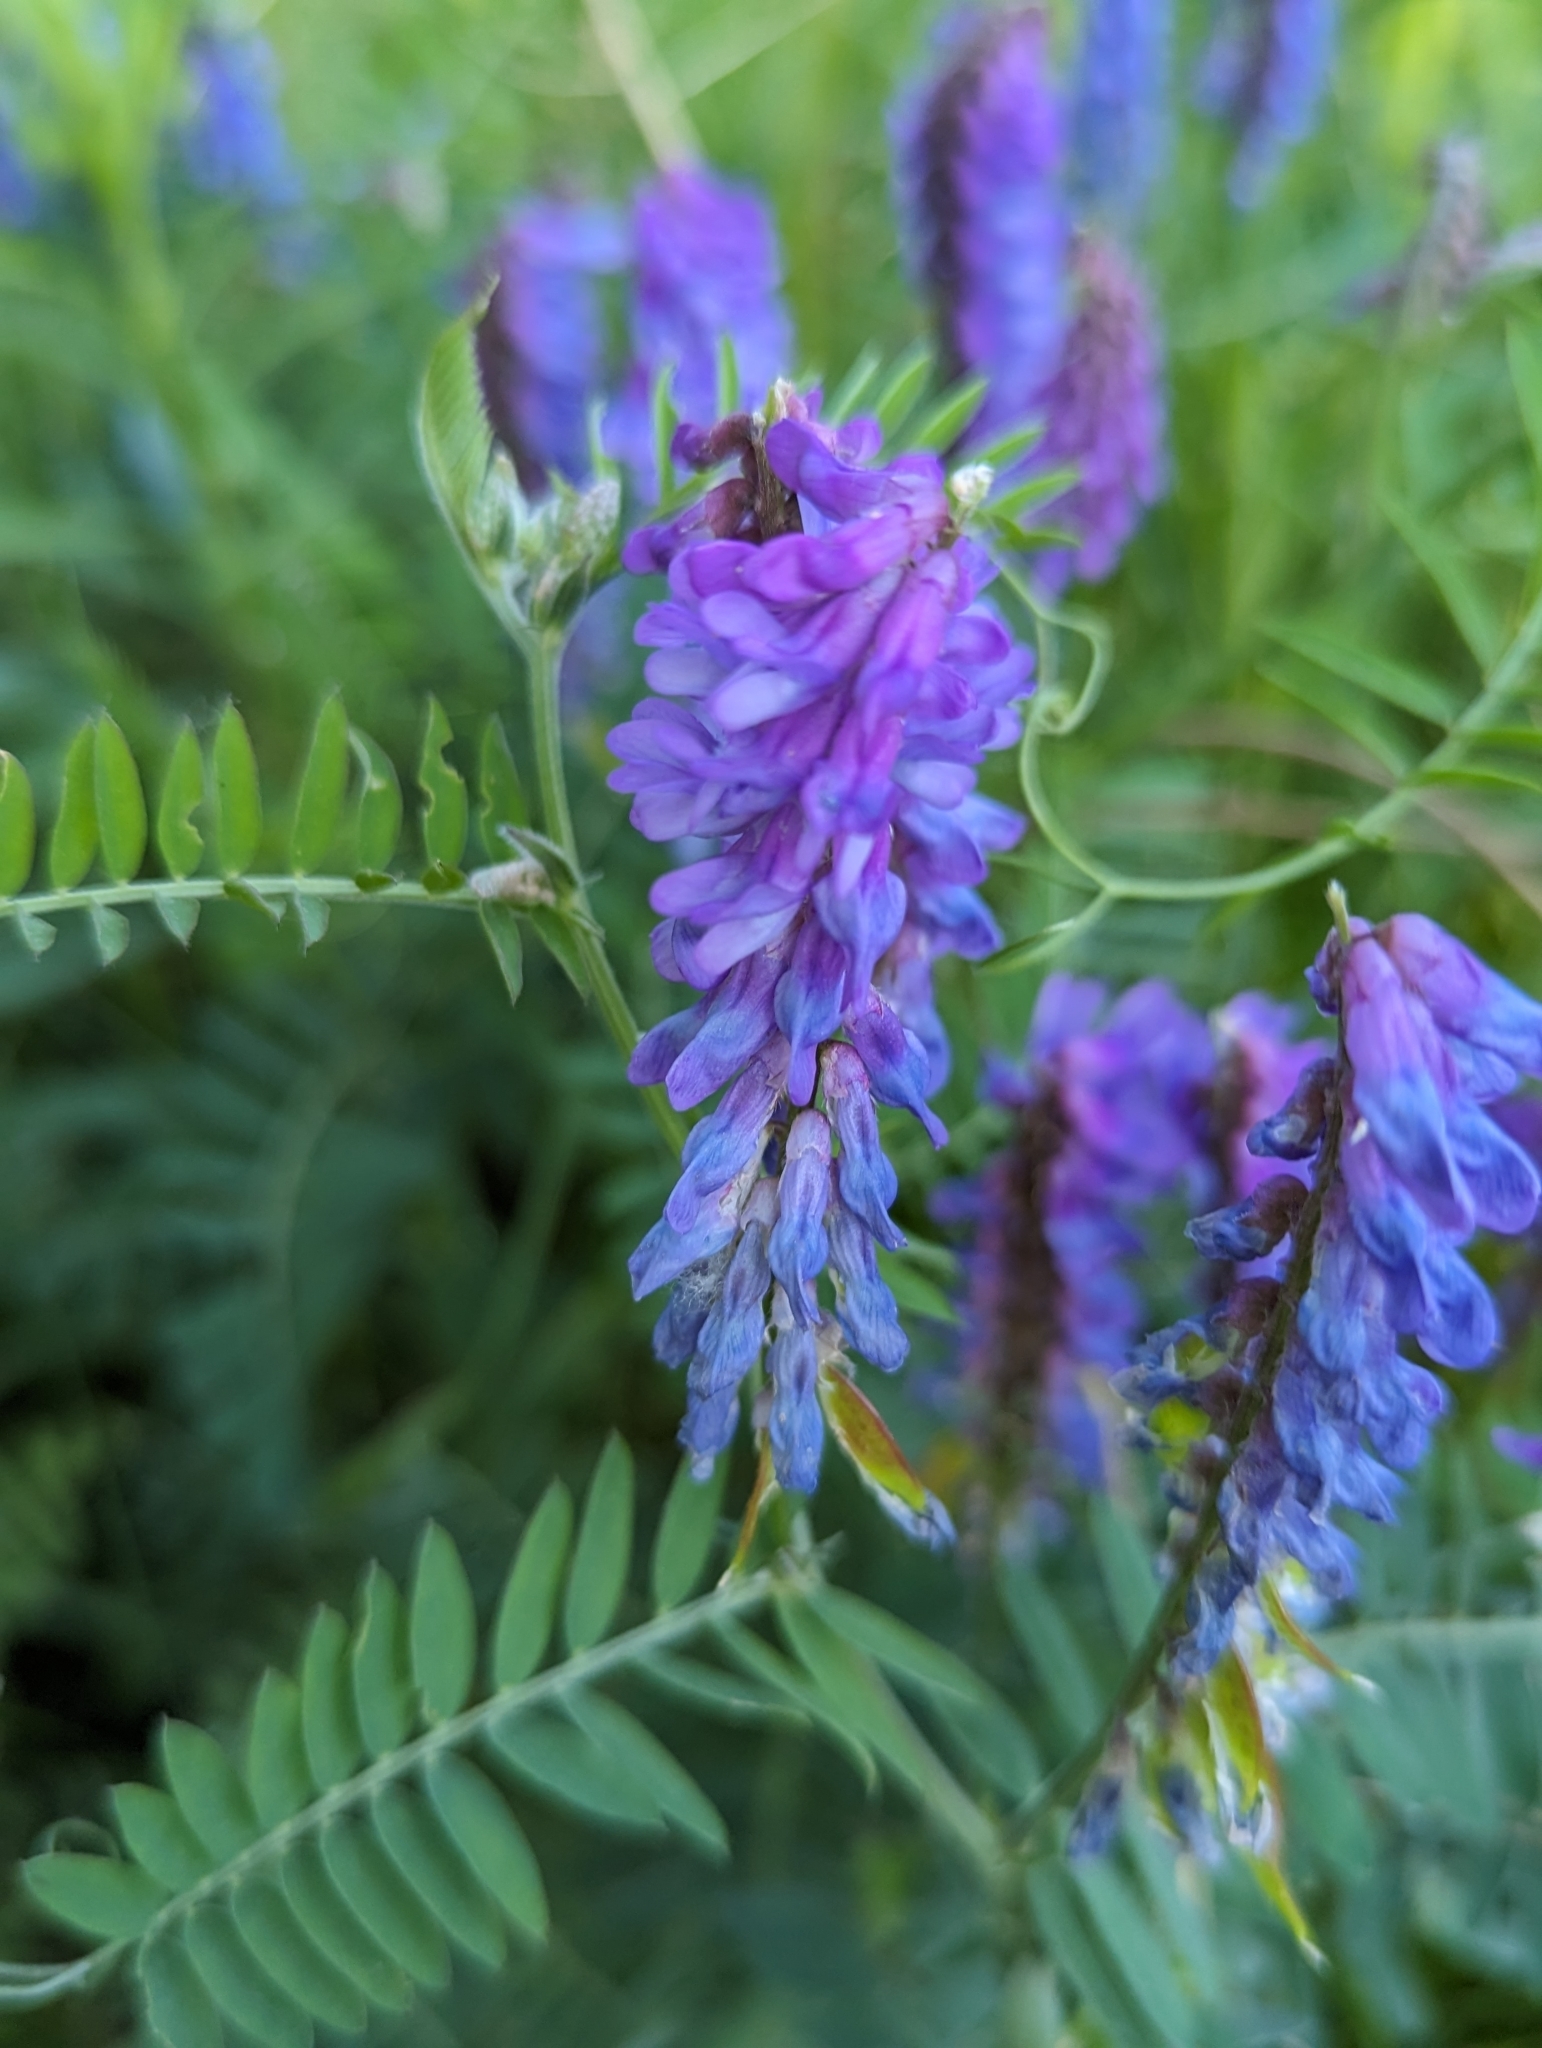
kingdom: Plantae
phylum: Tracheophyta
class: Magnoliopsida
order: Fabales
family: Fabaceae
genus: Vicia
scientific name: Vicia cracca
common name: Bird vetch
